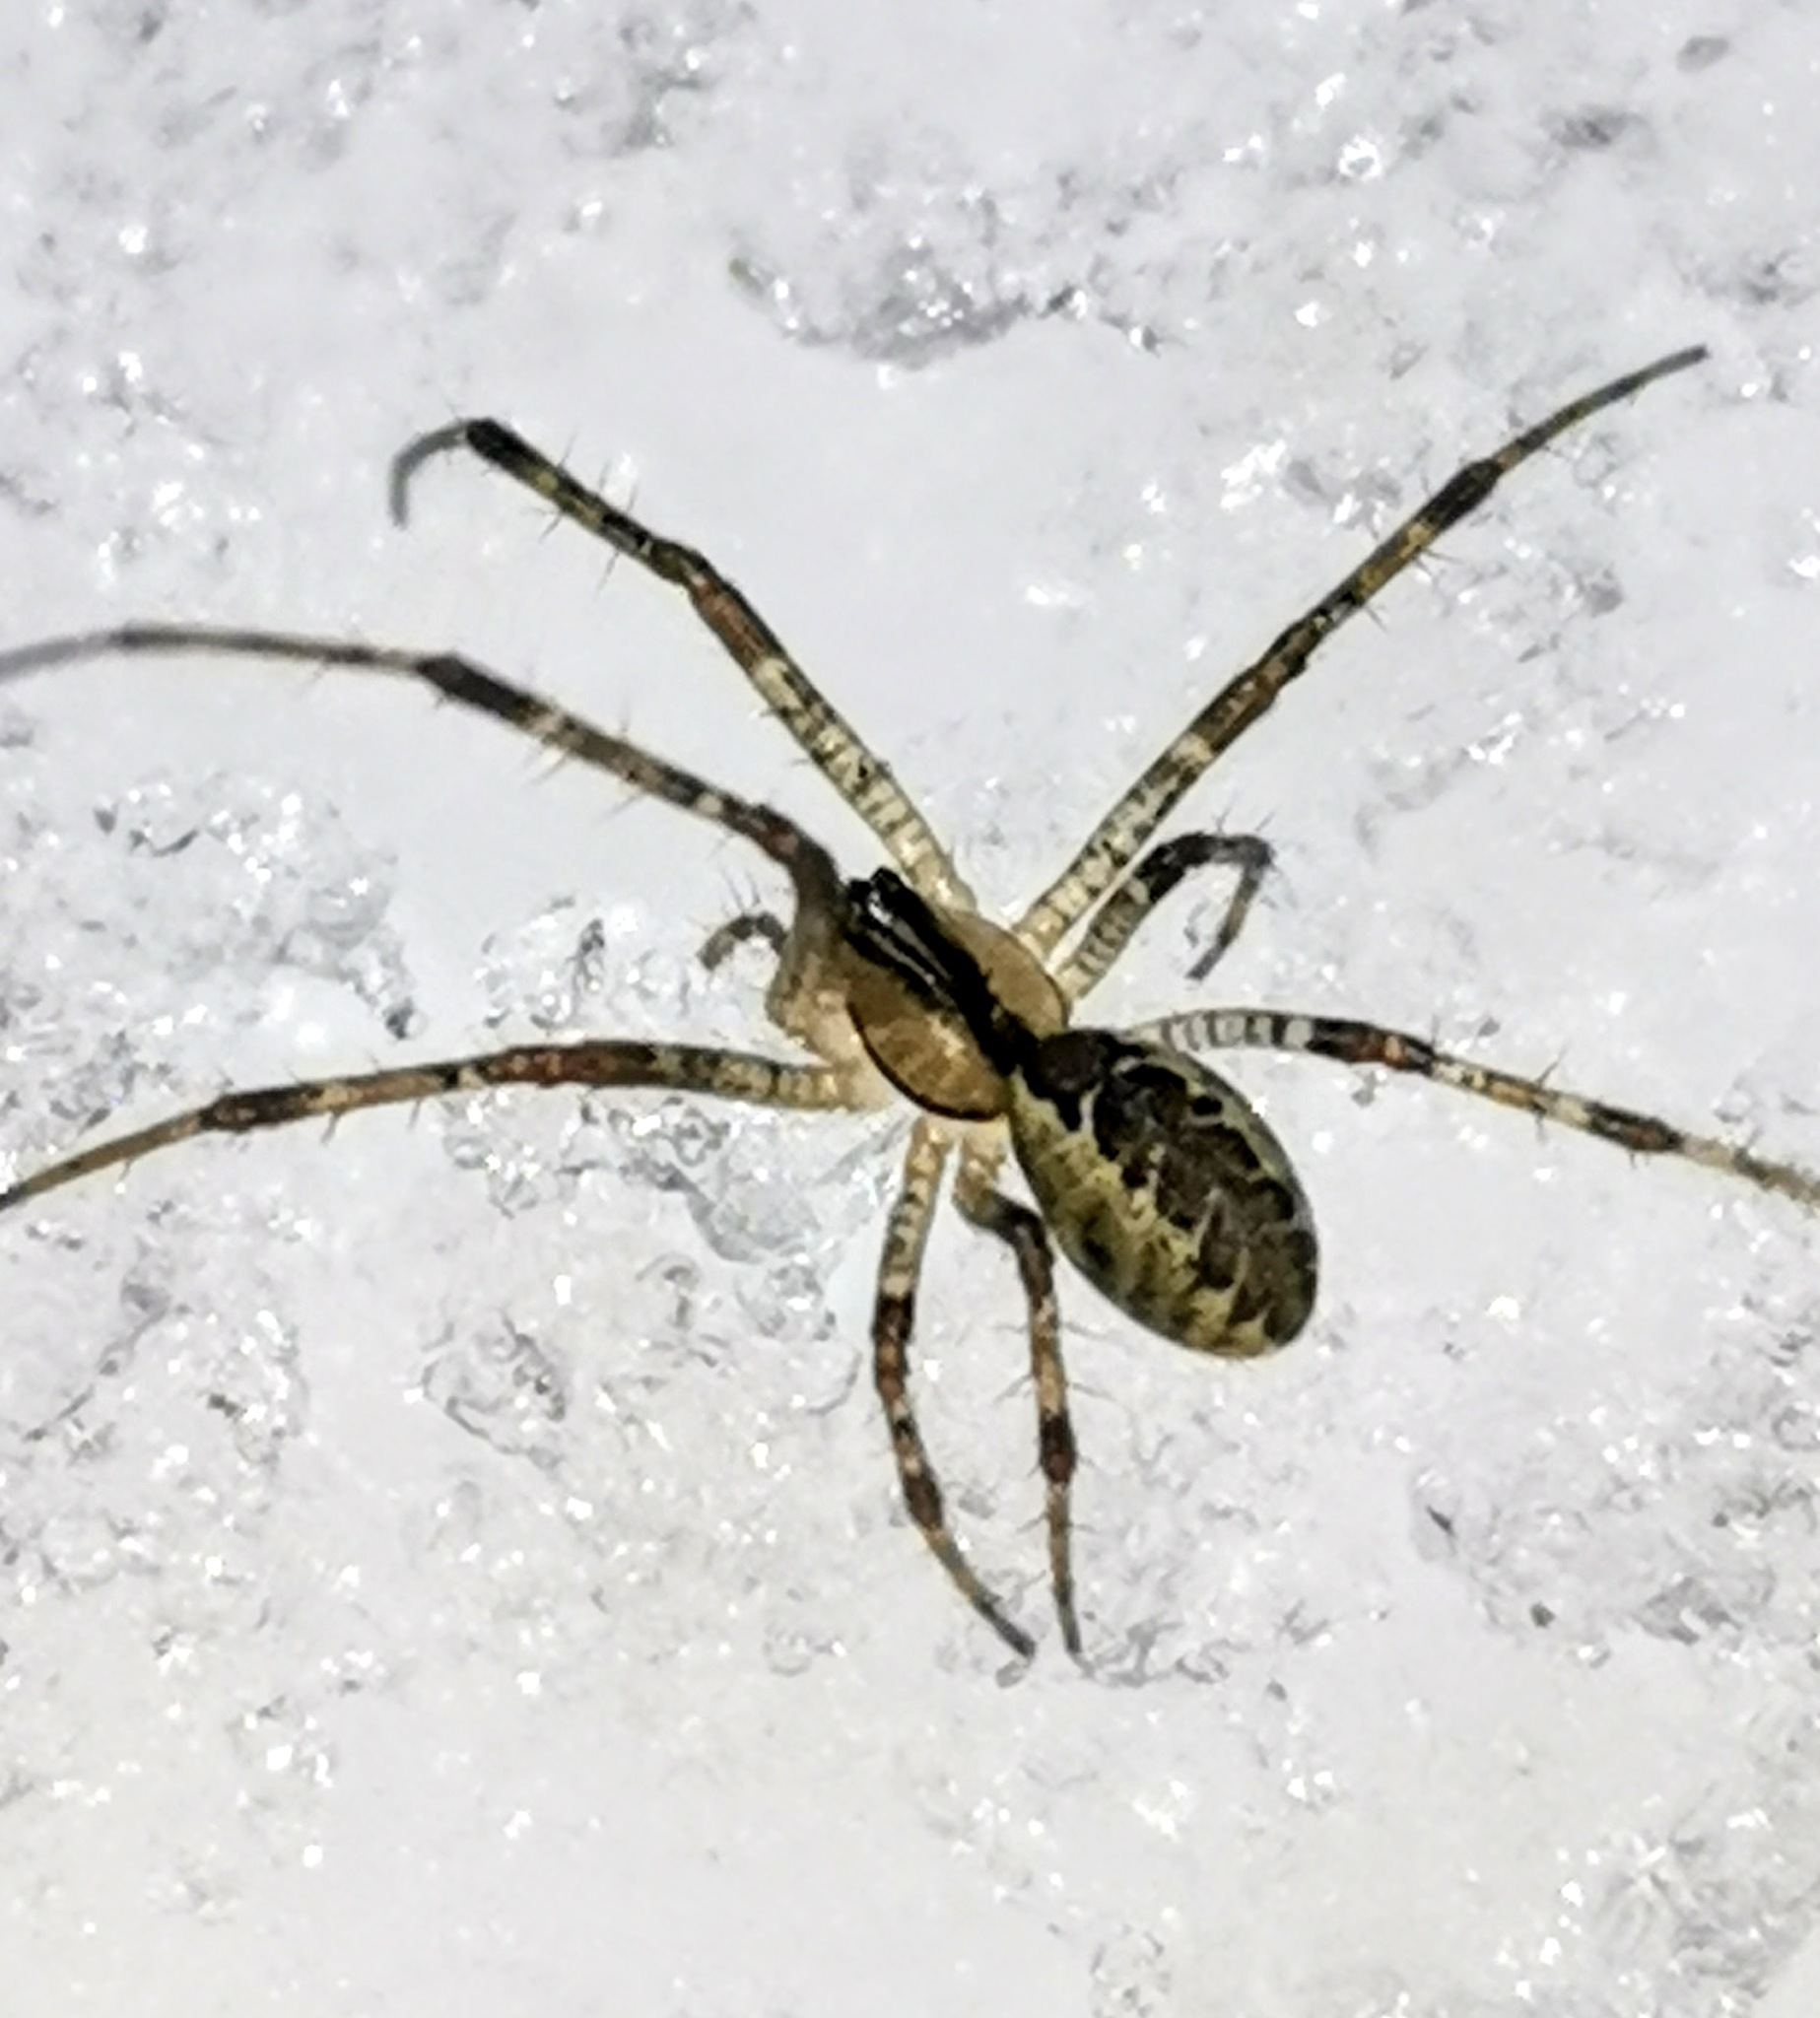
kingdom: Animalia
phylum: Arthropoda
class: Arachnida
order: Araneae
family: Linyphiidae
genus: Pityohyphantes
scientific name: Pityohyphantes phrygianus
